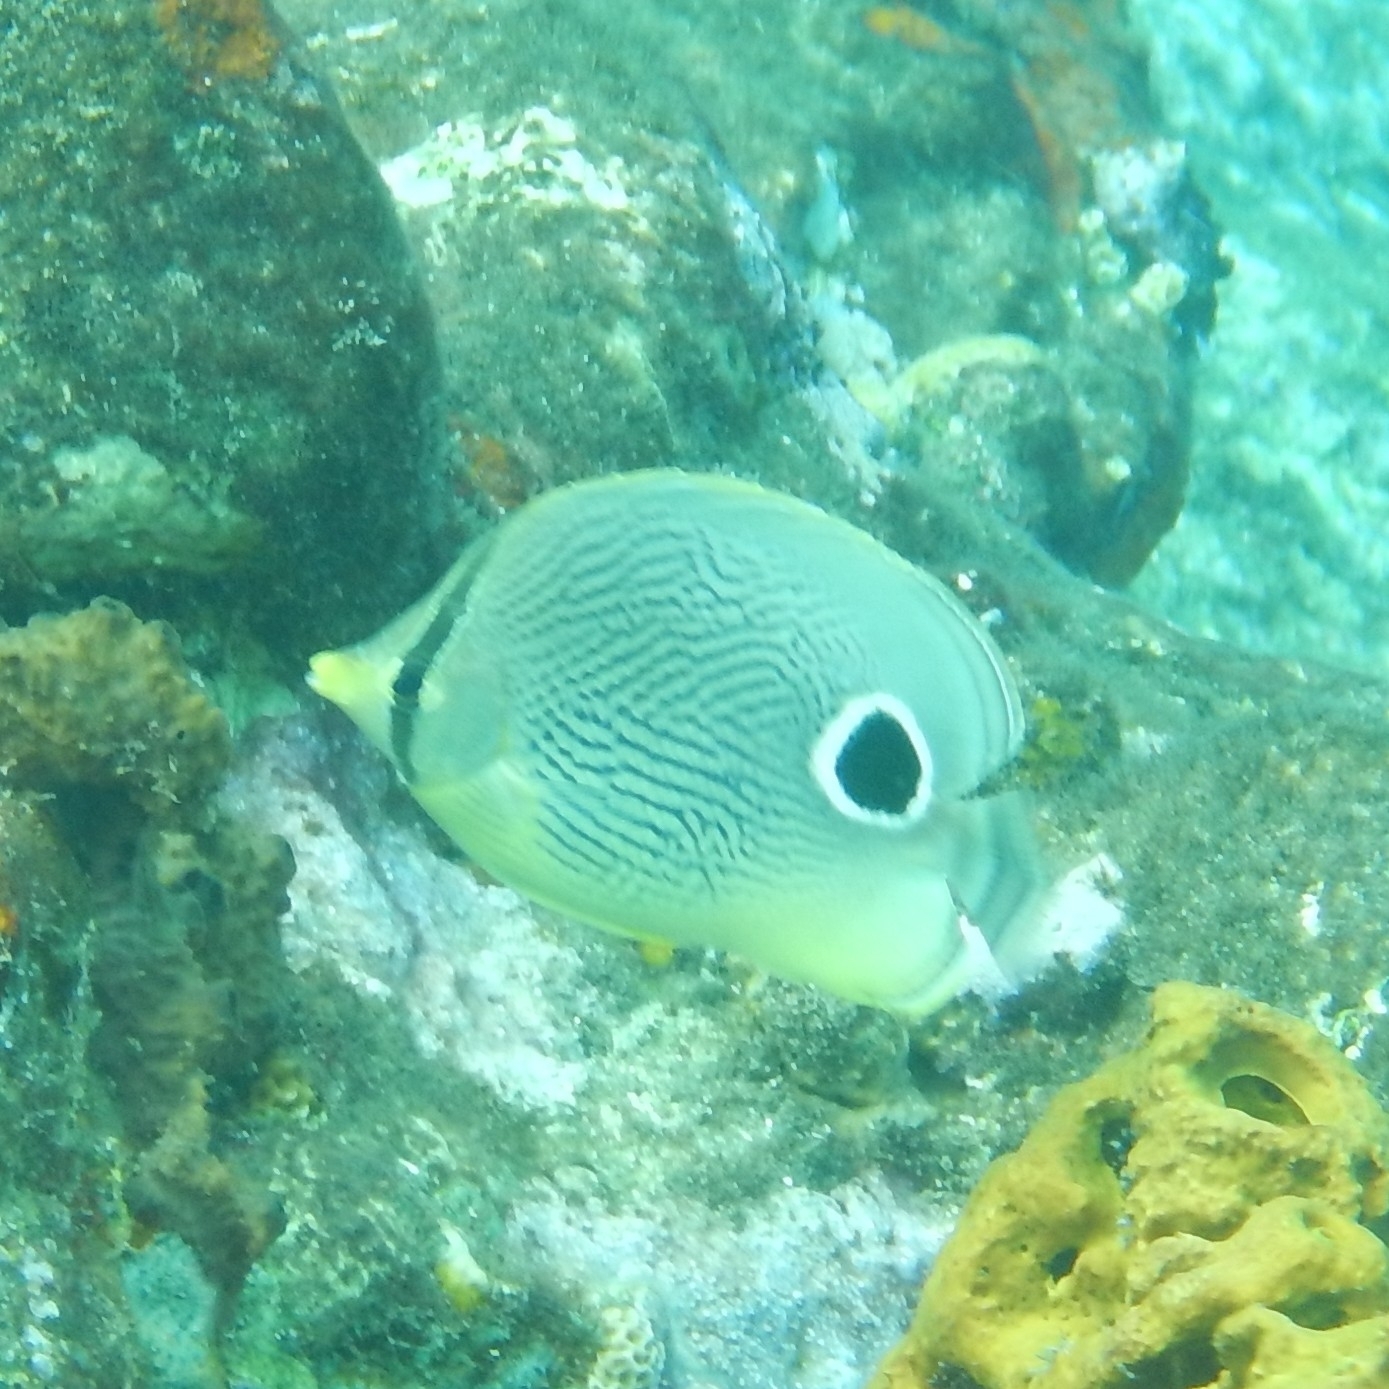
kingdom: Animalia
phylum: Chordata
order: Perciformes
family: Chaetodontidae
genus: Chaetodon
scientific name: Chaetodon capistratus
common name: Kete
